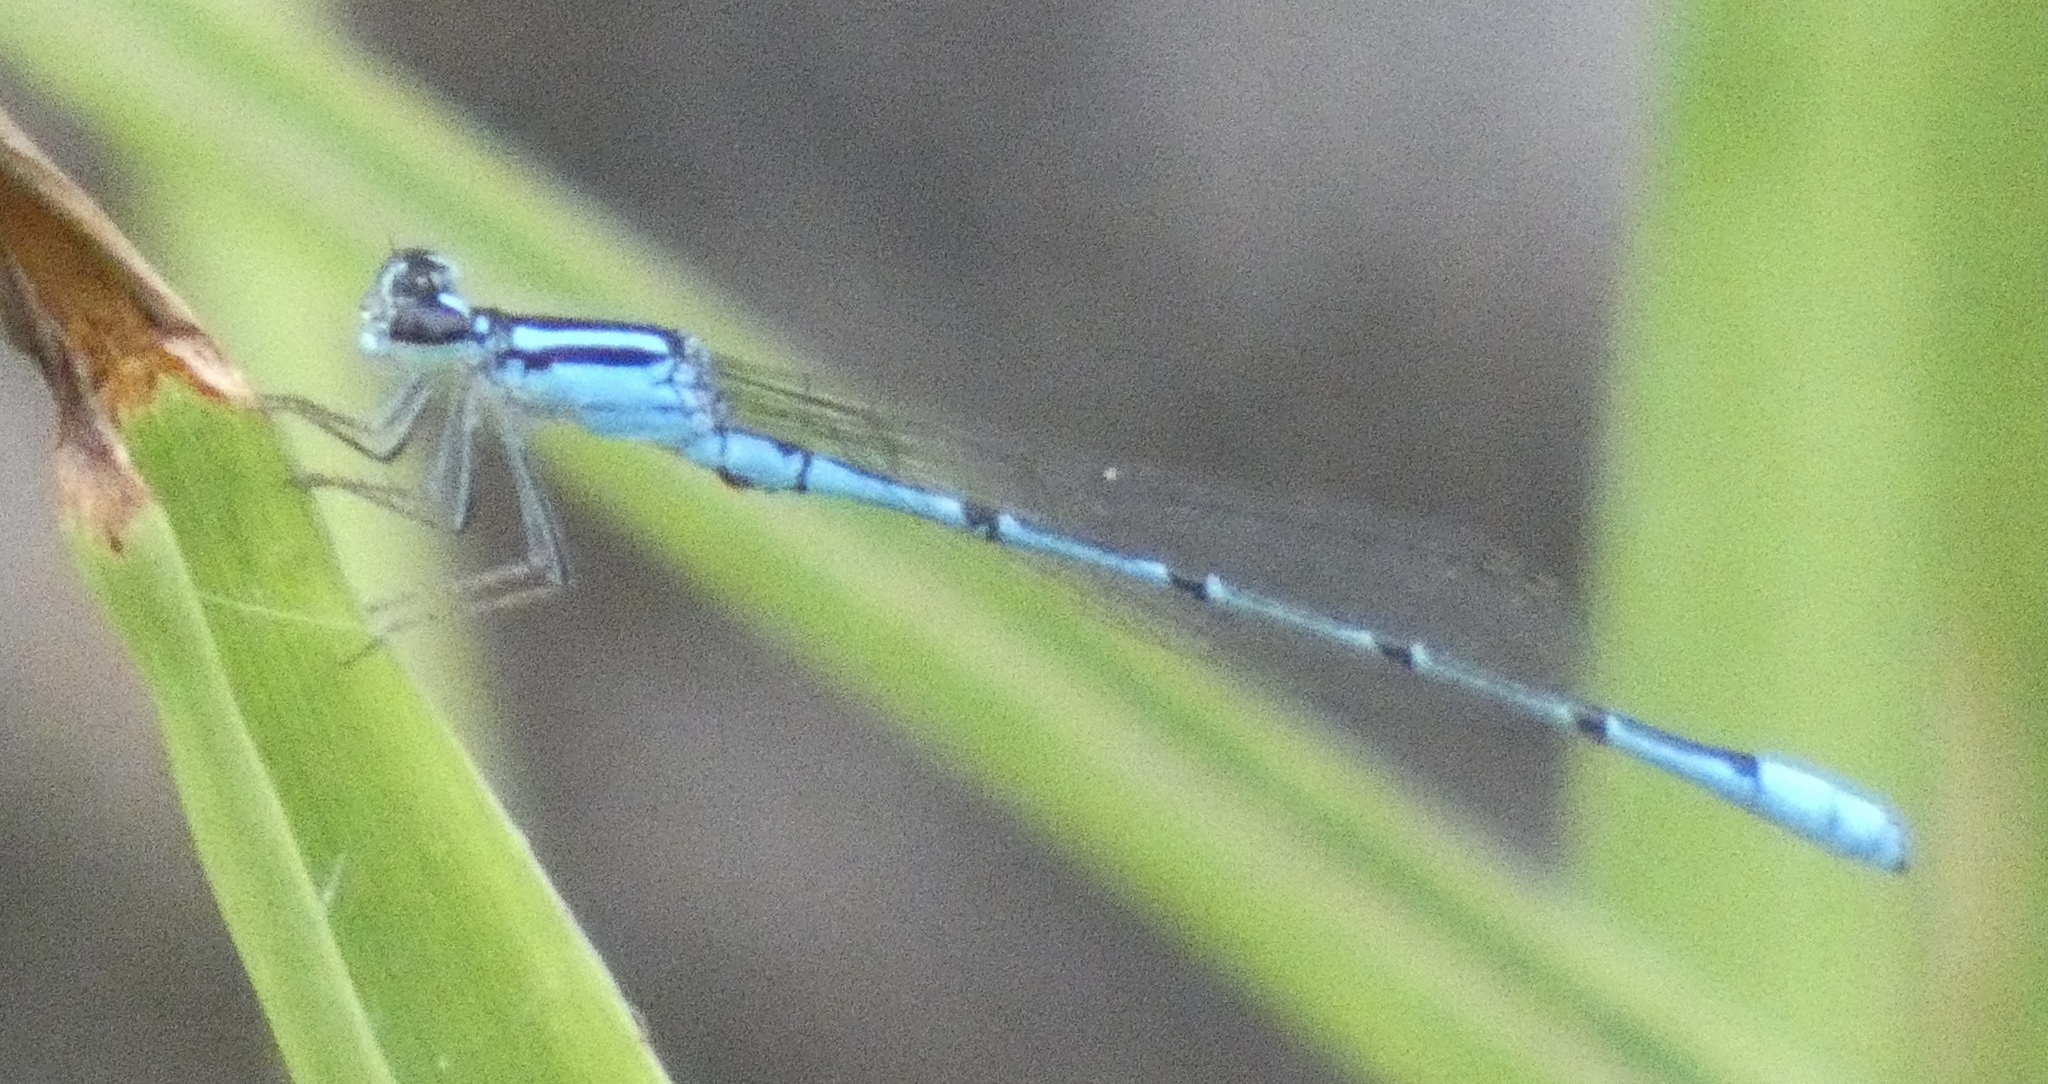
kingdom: Animalia
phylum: Arthropoda
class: Insecta
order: Odonata
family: Coenagrionidae
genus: Acanthagrion
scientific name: Acanthagrion temporale
